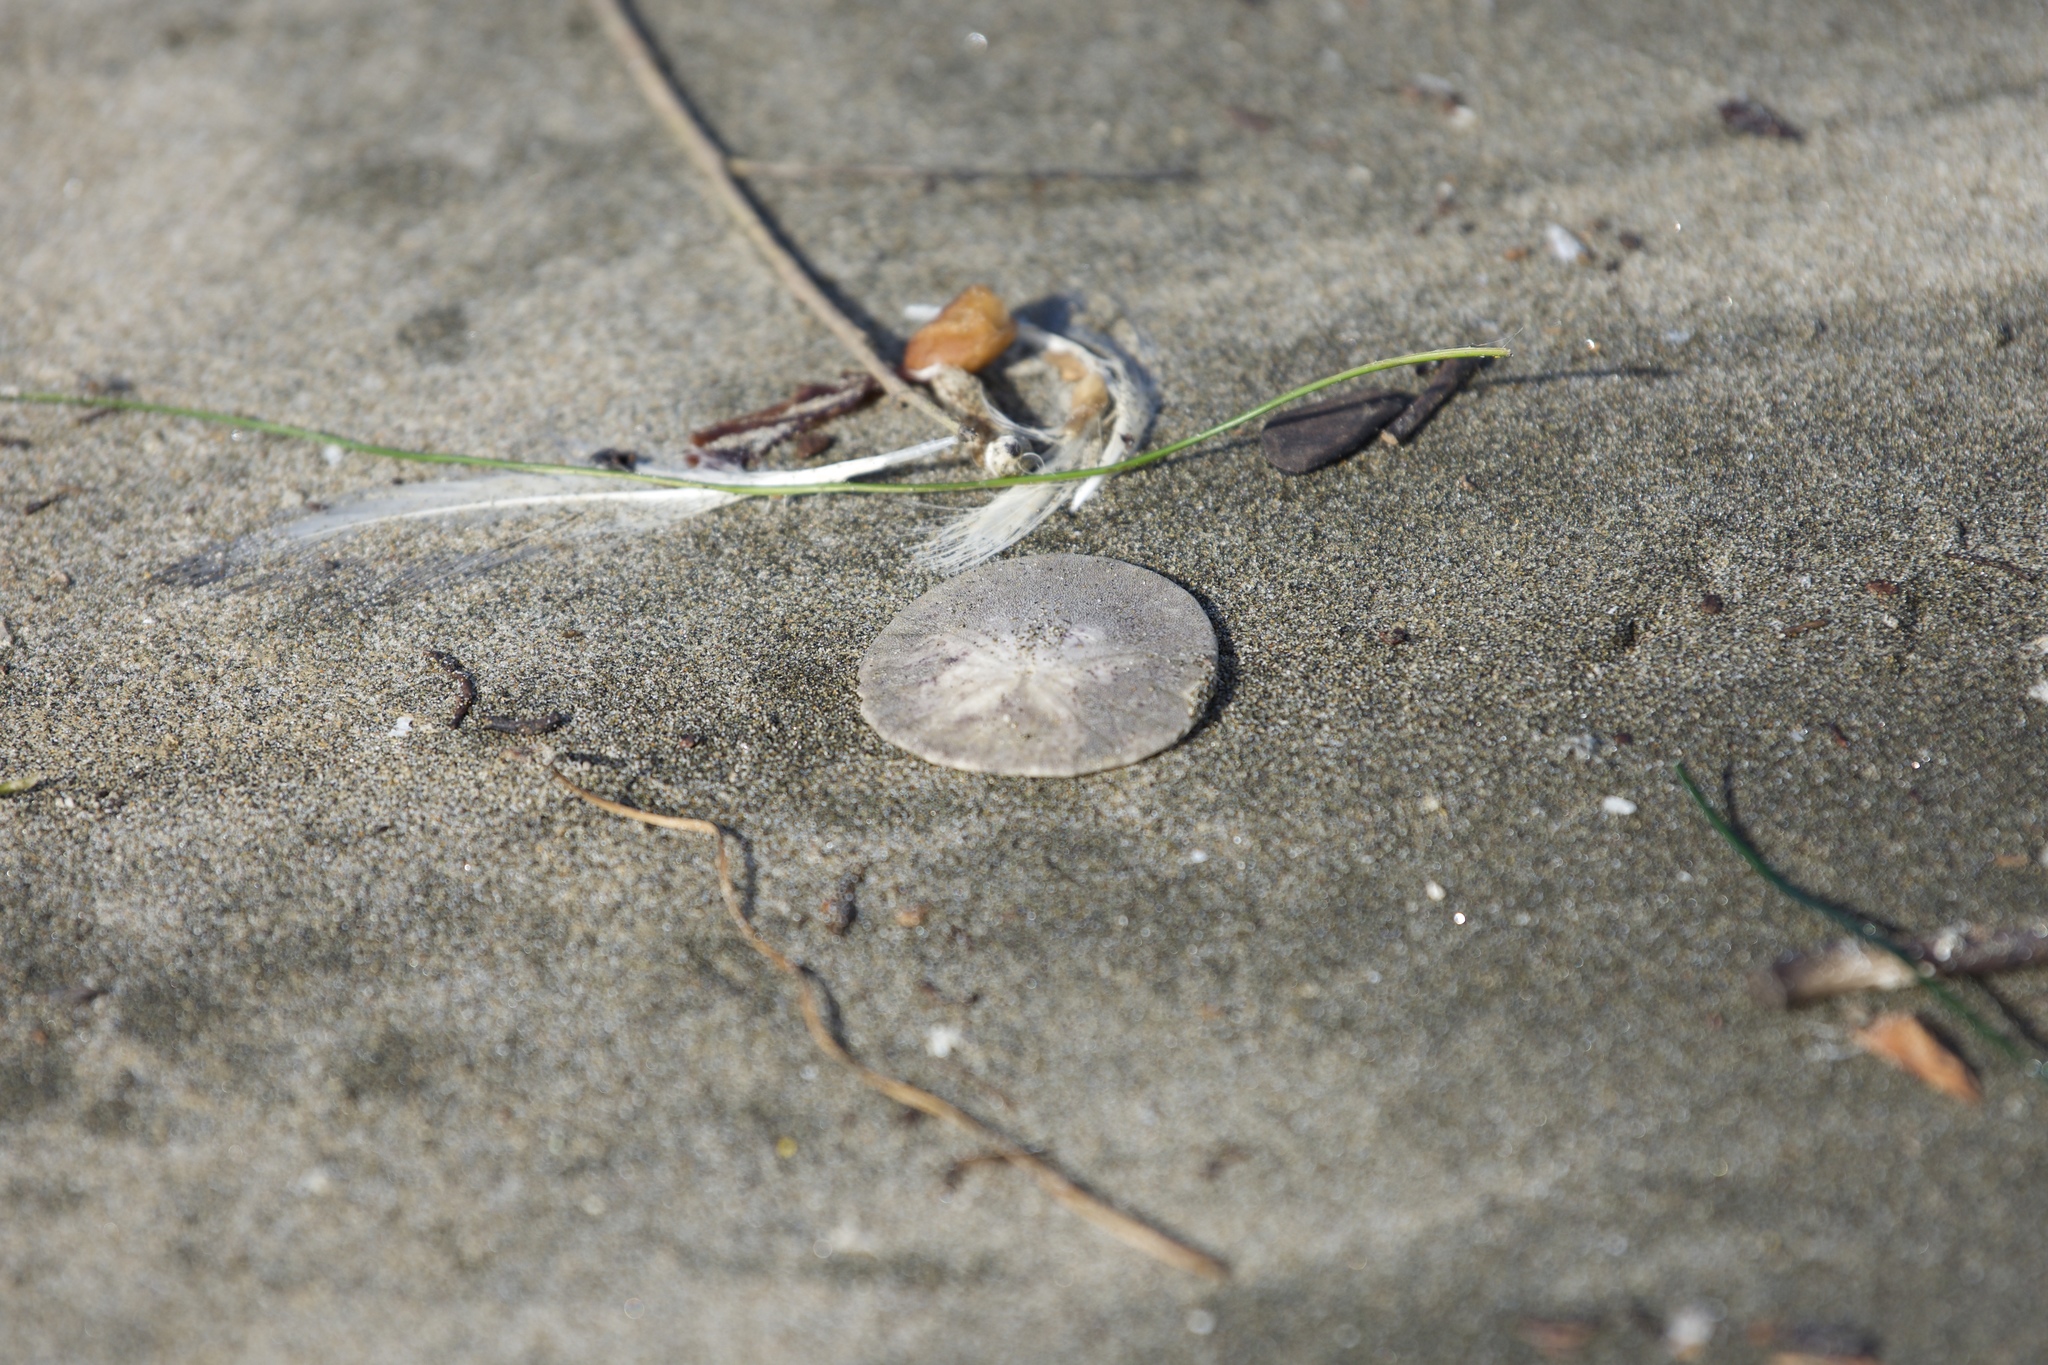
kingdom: Animalia
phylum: Echinodermata
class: Echinoidea
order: Echinolampadacea
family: Dendrasteridae
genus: Dendraster
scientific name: Dendraster excentricus
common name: Eccentric sand dollar sea urchin
